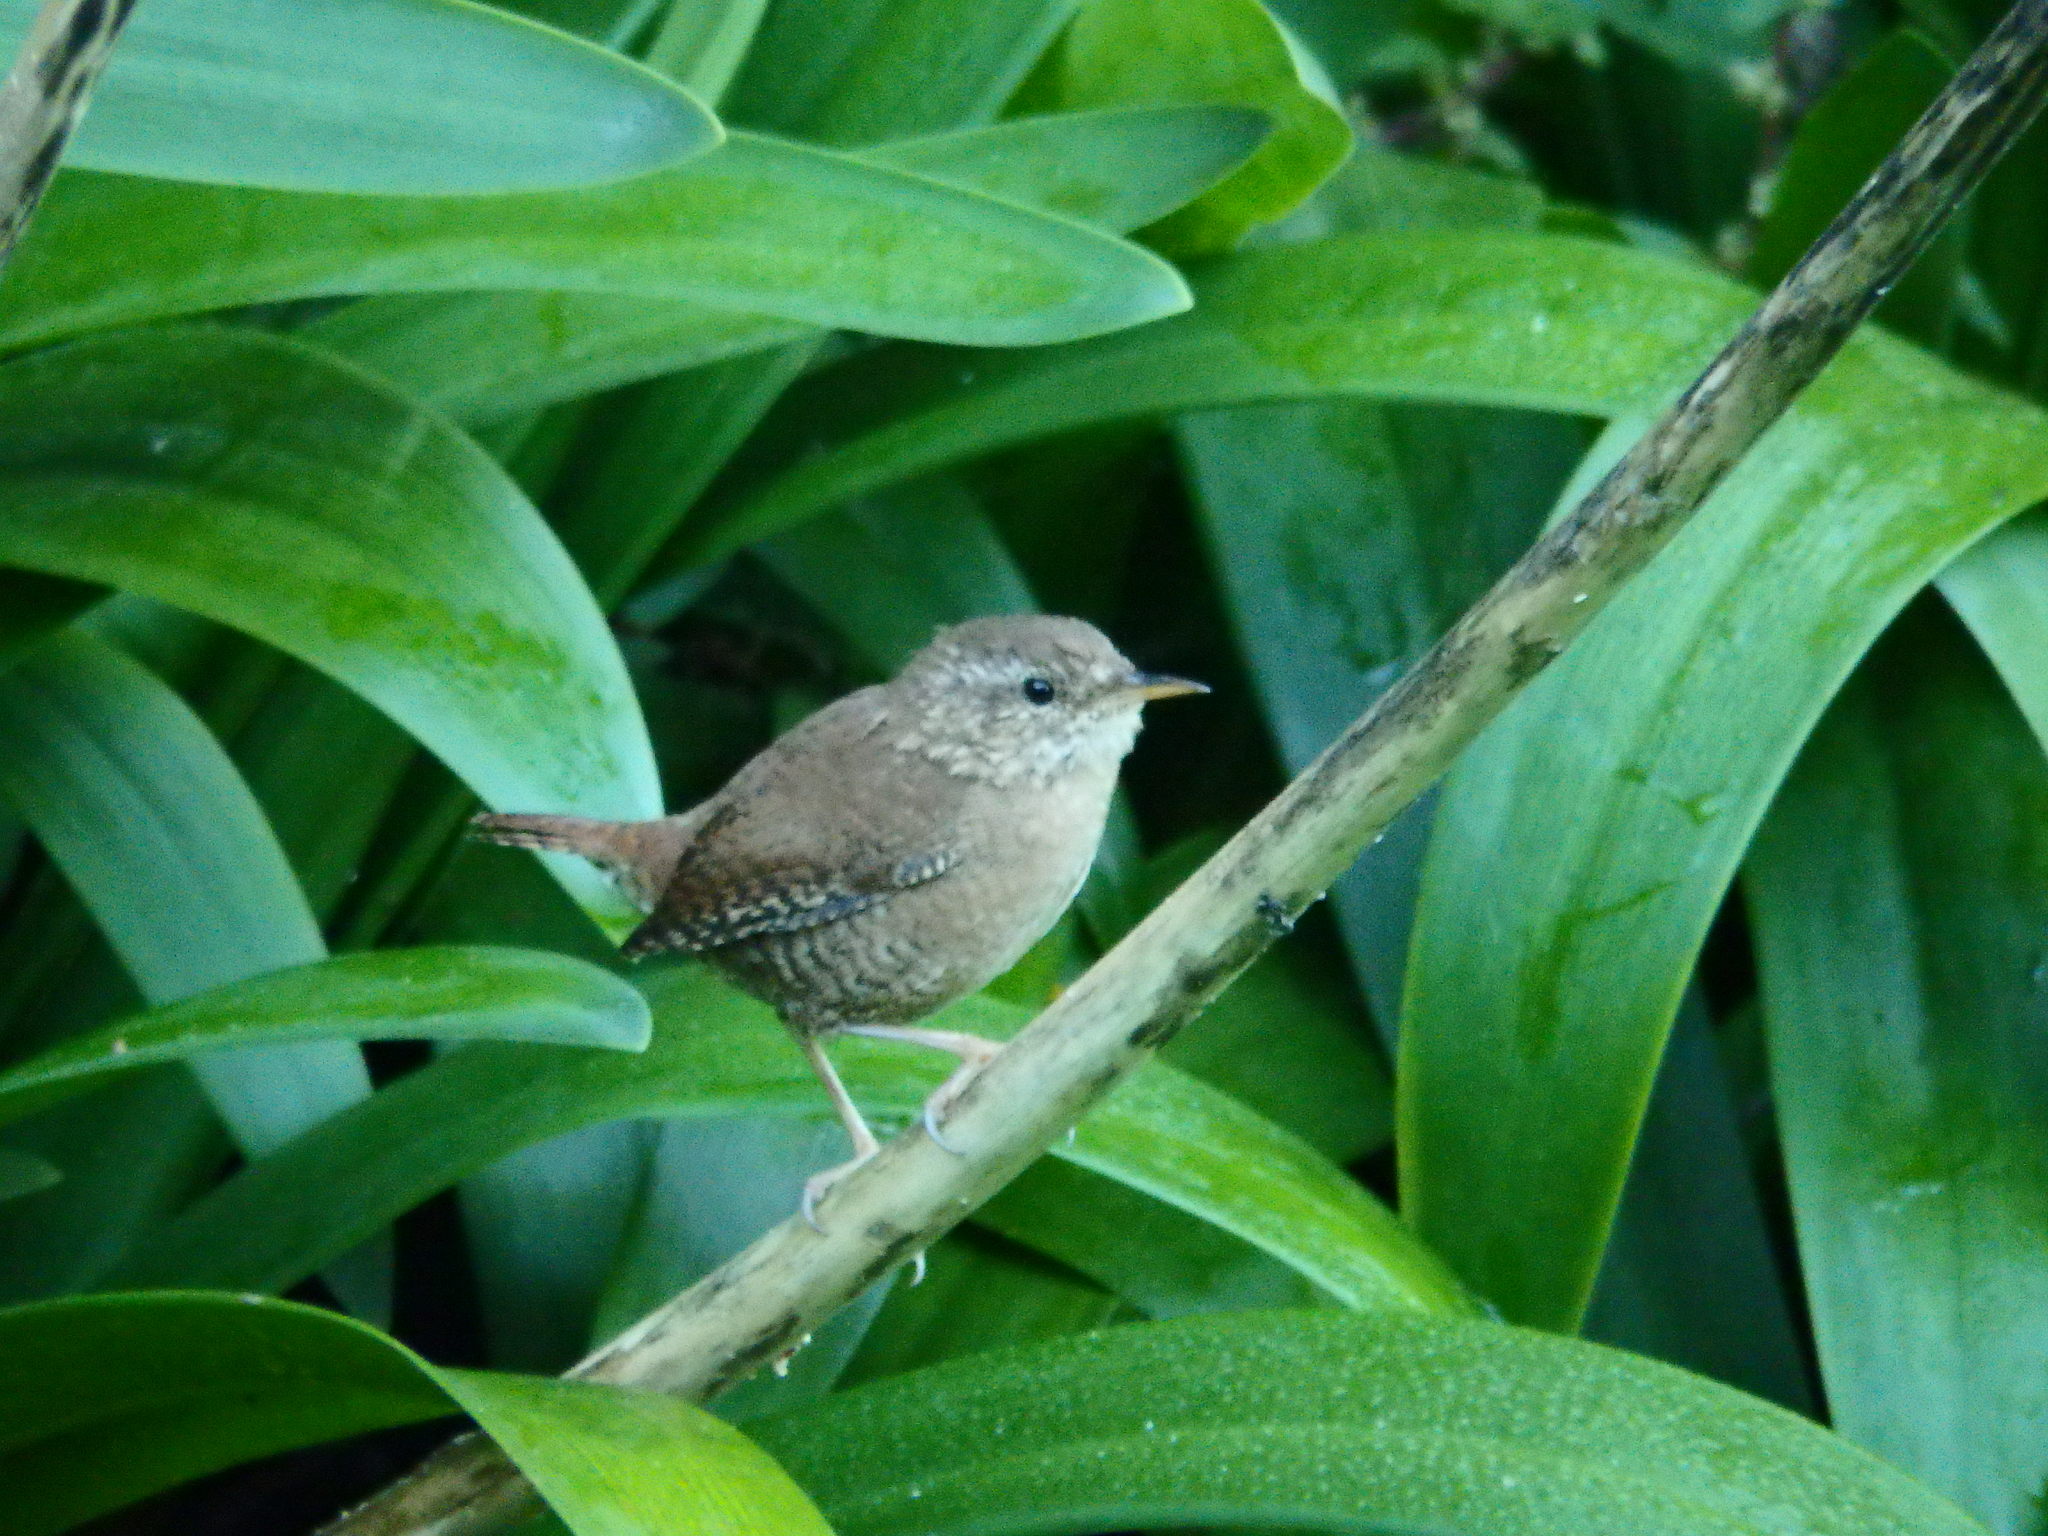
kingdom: Animalia
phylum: Chordata
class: Aves
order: Passeriformes
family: Troglodytidae
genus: Troglodytes
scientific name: Troglodytes troglodytes
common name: Eurasian wren
